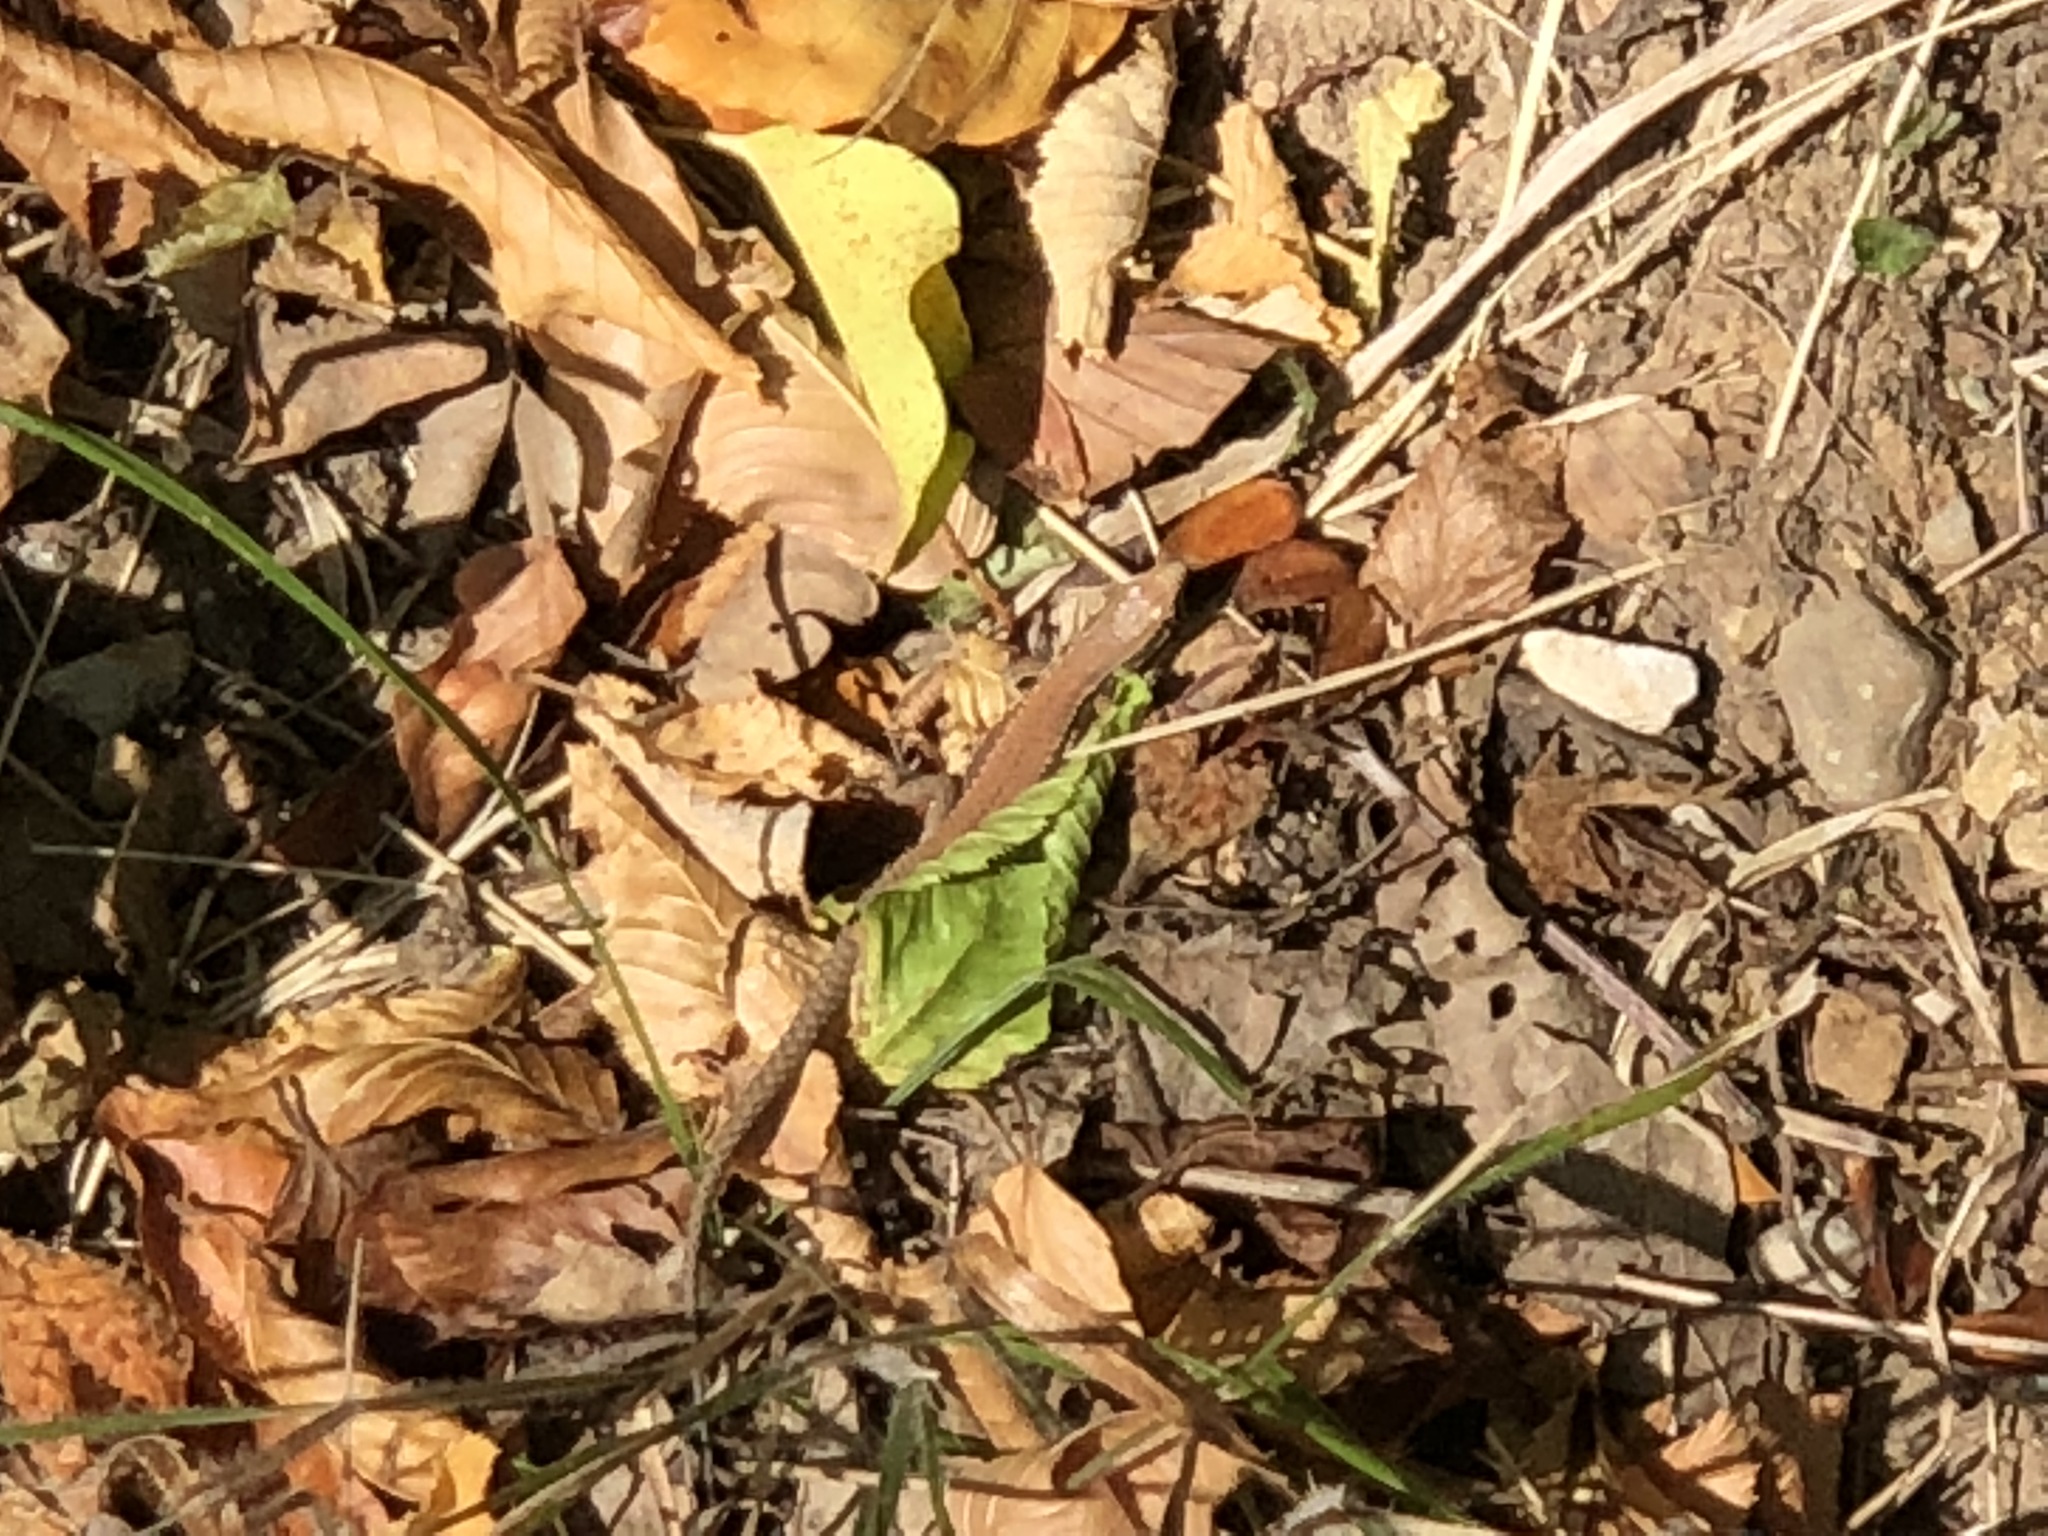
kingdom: Animalia
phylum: Chordata
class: Squamata
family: Lacertidae
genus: Podarcis
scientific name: Podarcis muralis
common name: Common wall lizard
